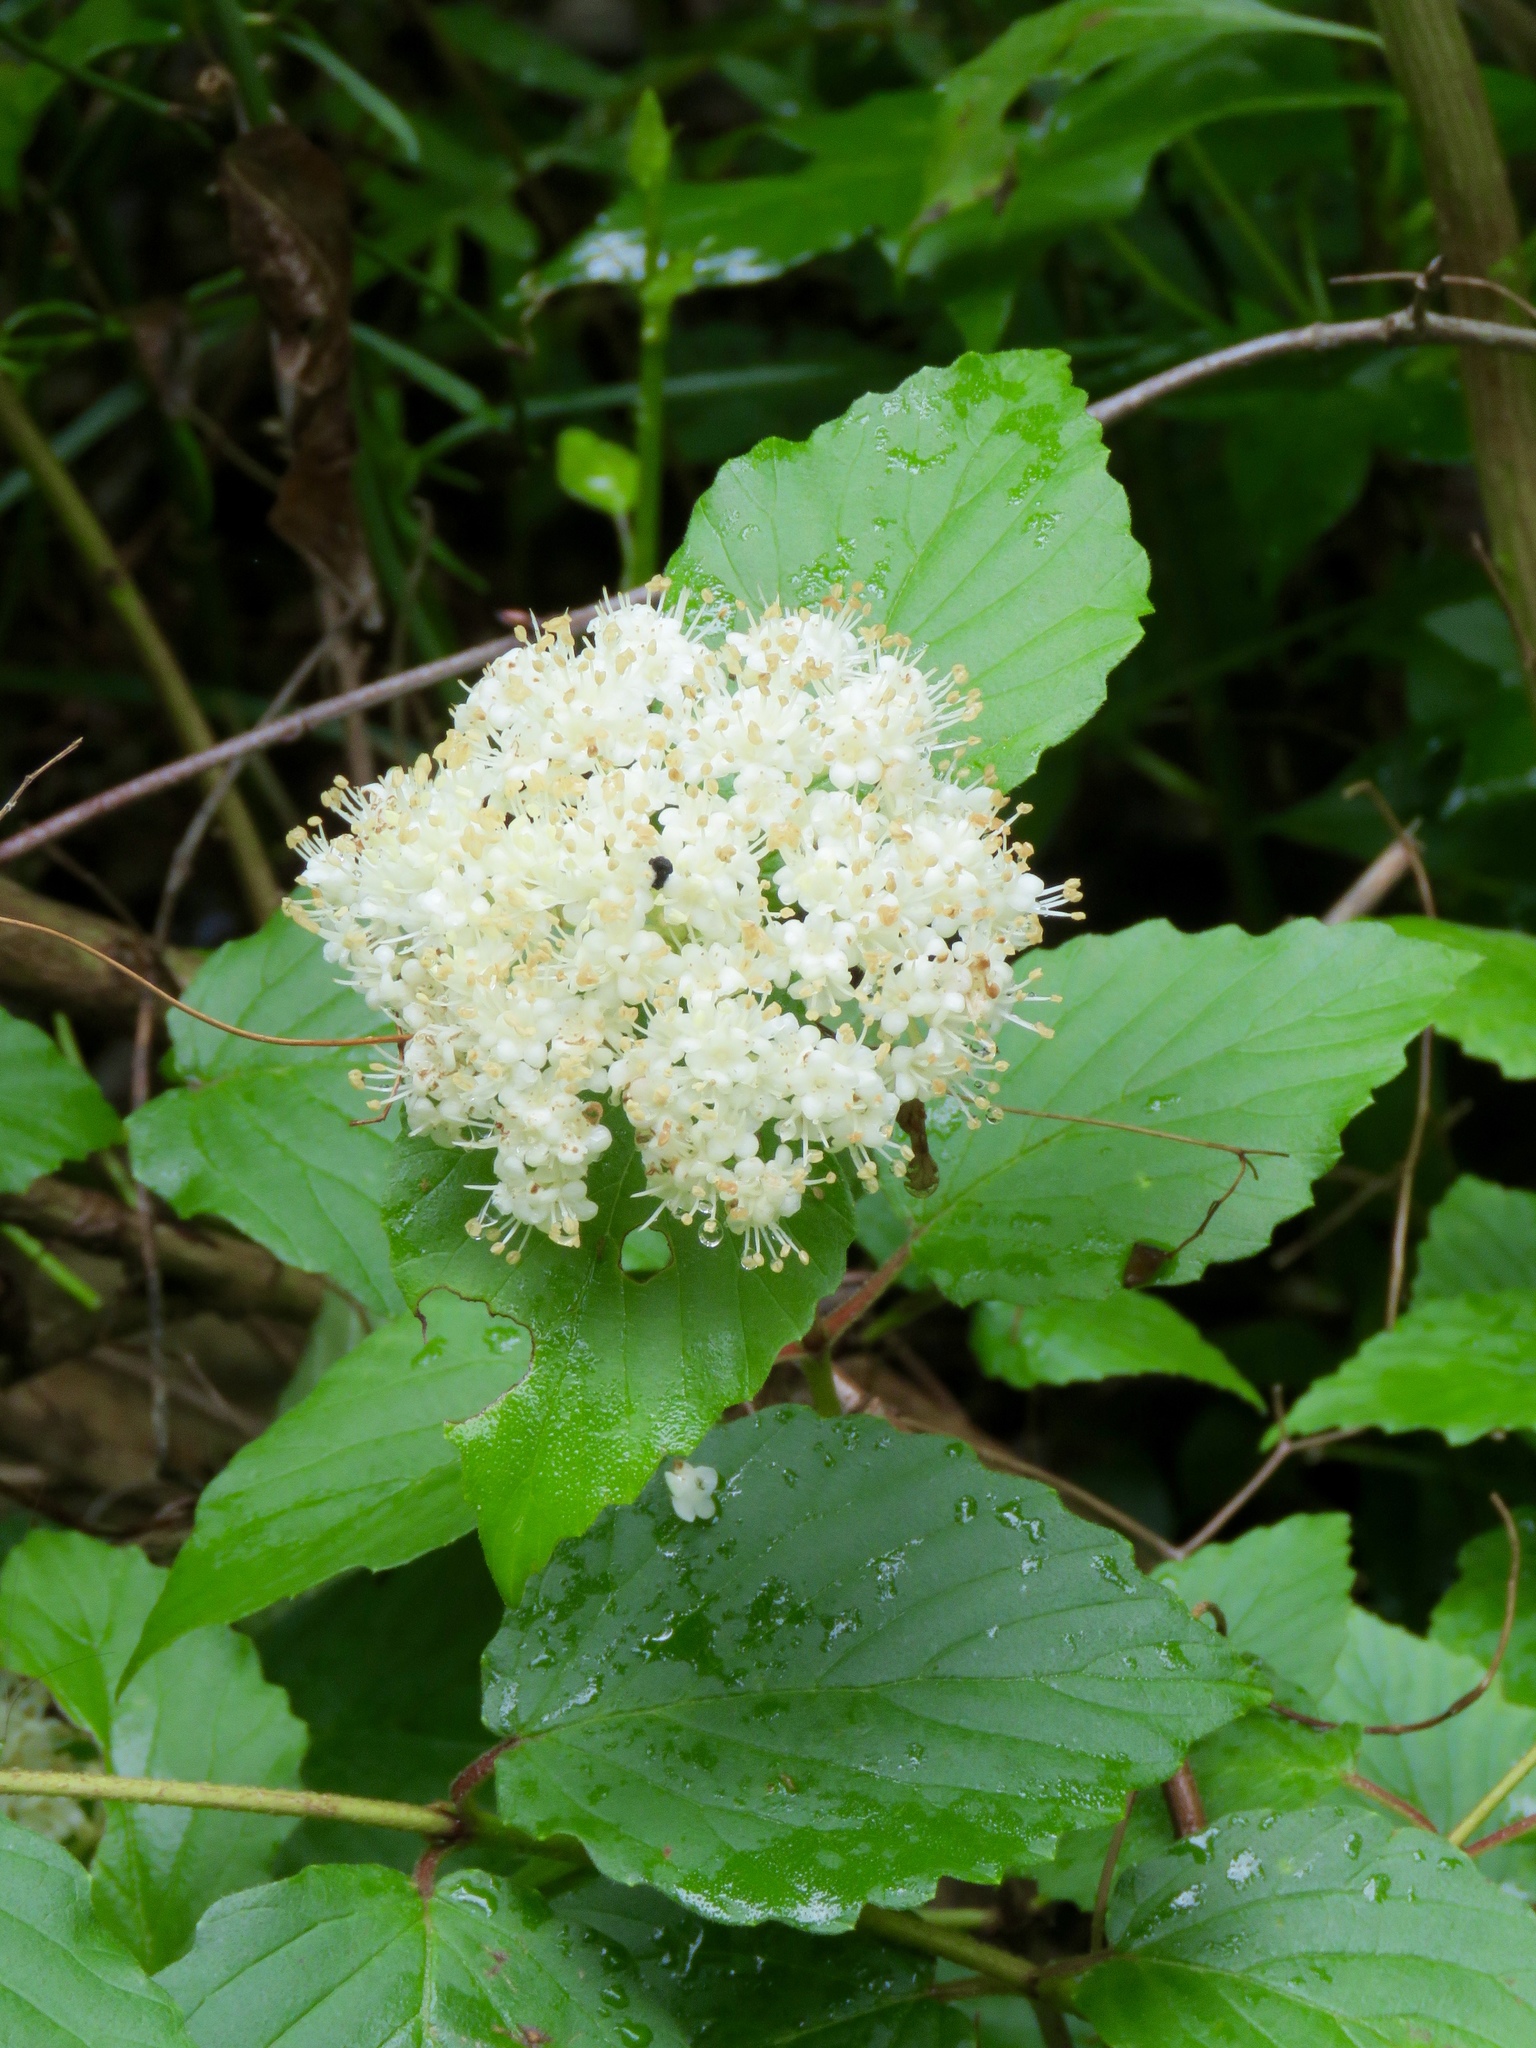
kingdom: Plantae
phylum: Tracheophyta
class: Magnoliopsida
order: Dipsacales
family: Viburnaceae
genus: Viburnum
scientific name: Viburnum scabrellum
